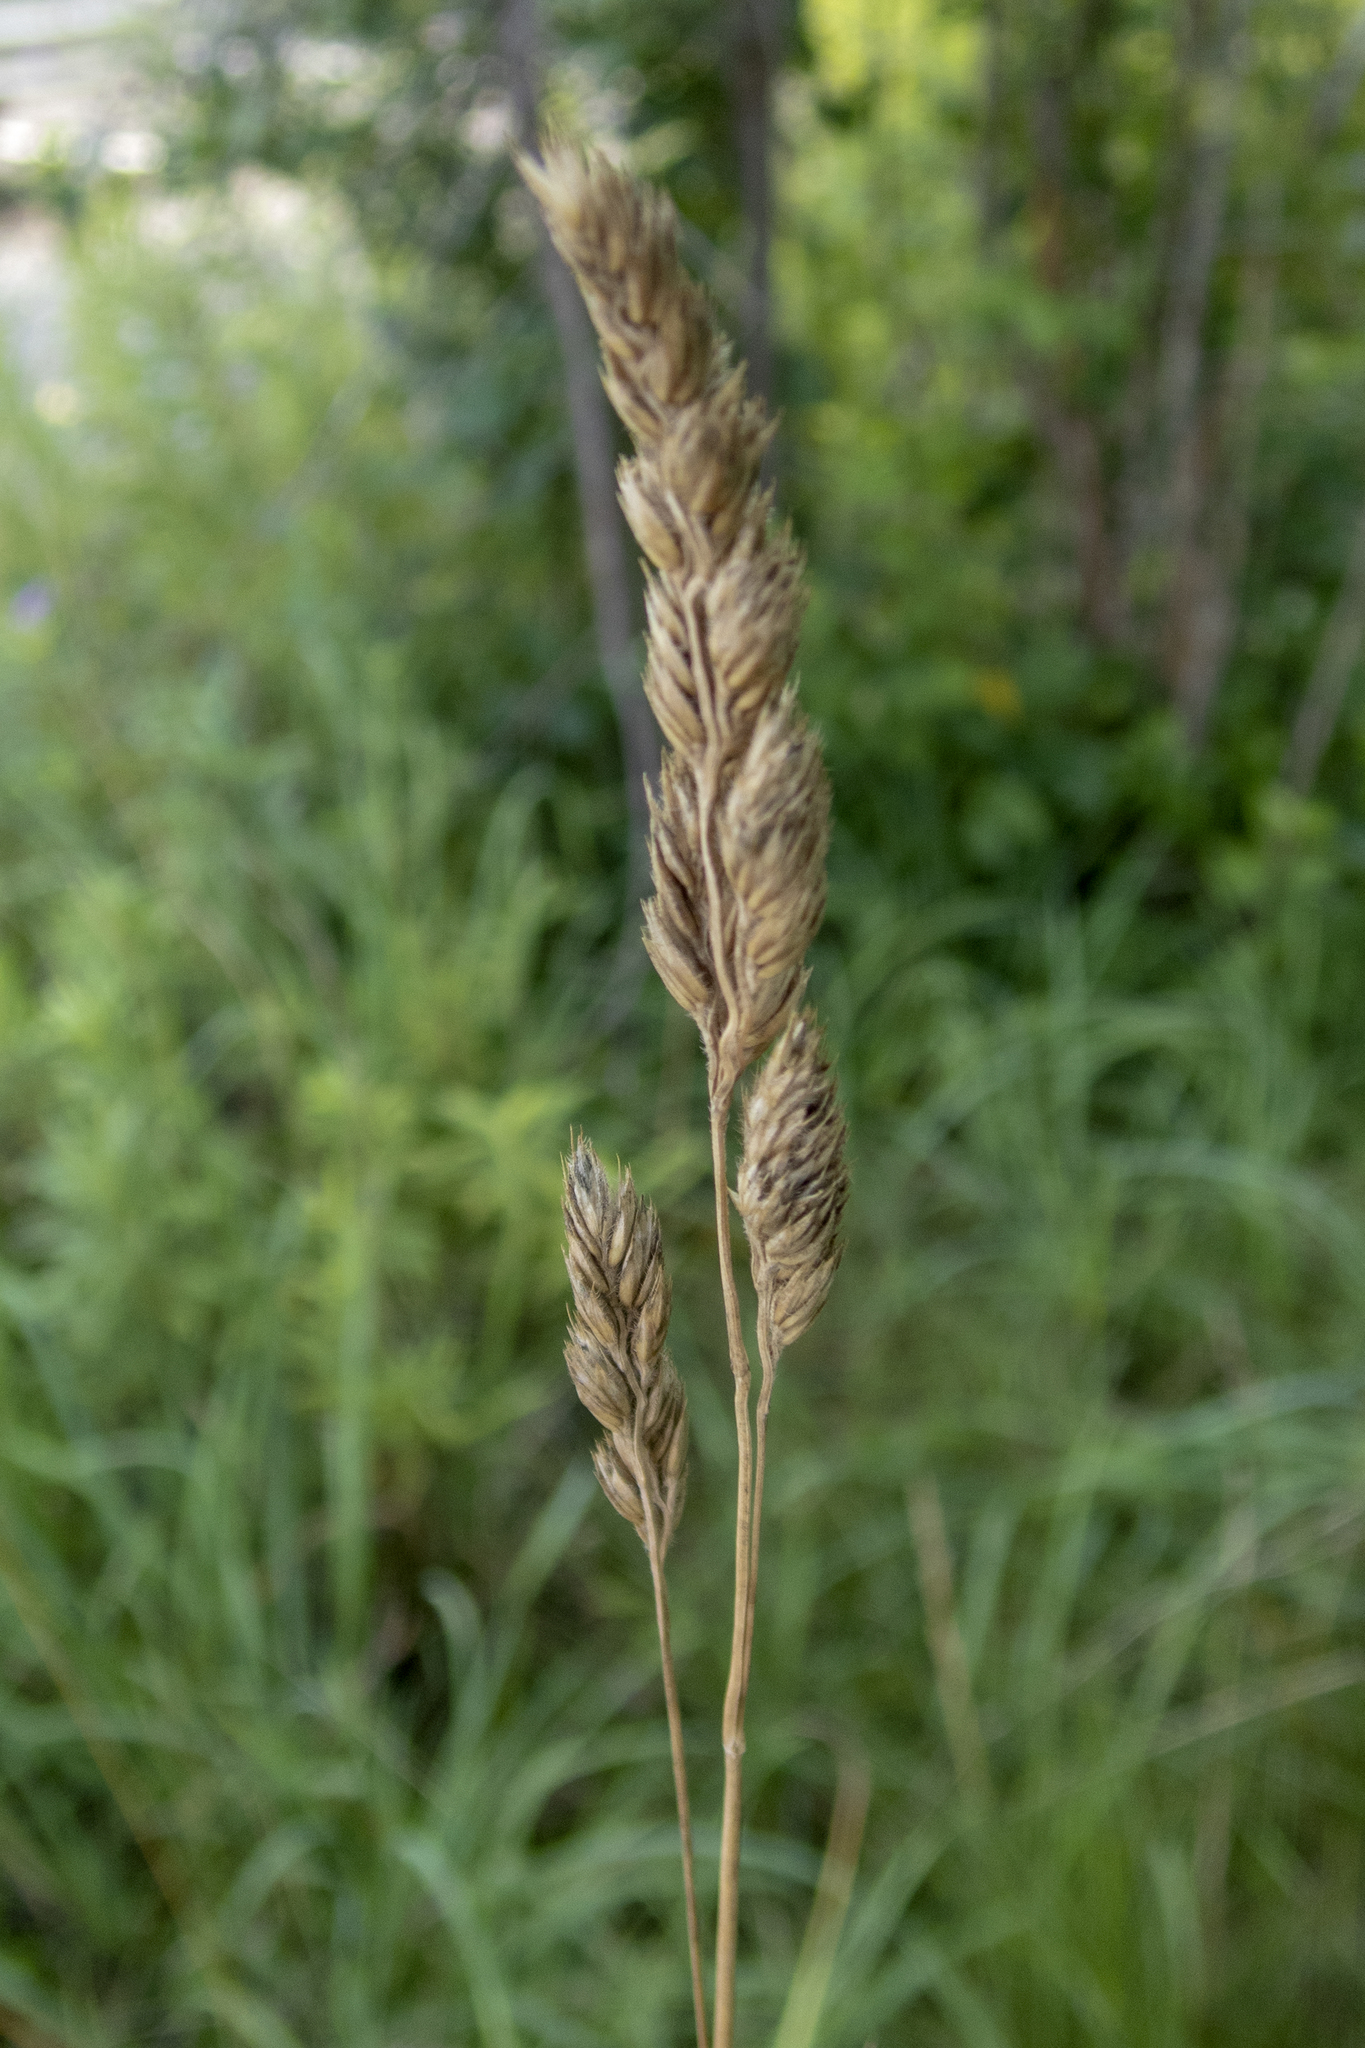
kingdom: Plantae
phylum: Tracheophyta
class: Liliopsida
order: Poales
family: Poaceae
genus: Dactylis
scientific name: Dactylis glomerata
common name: Orchardgrass
